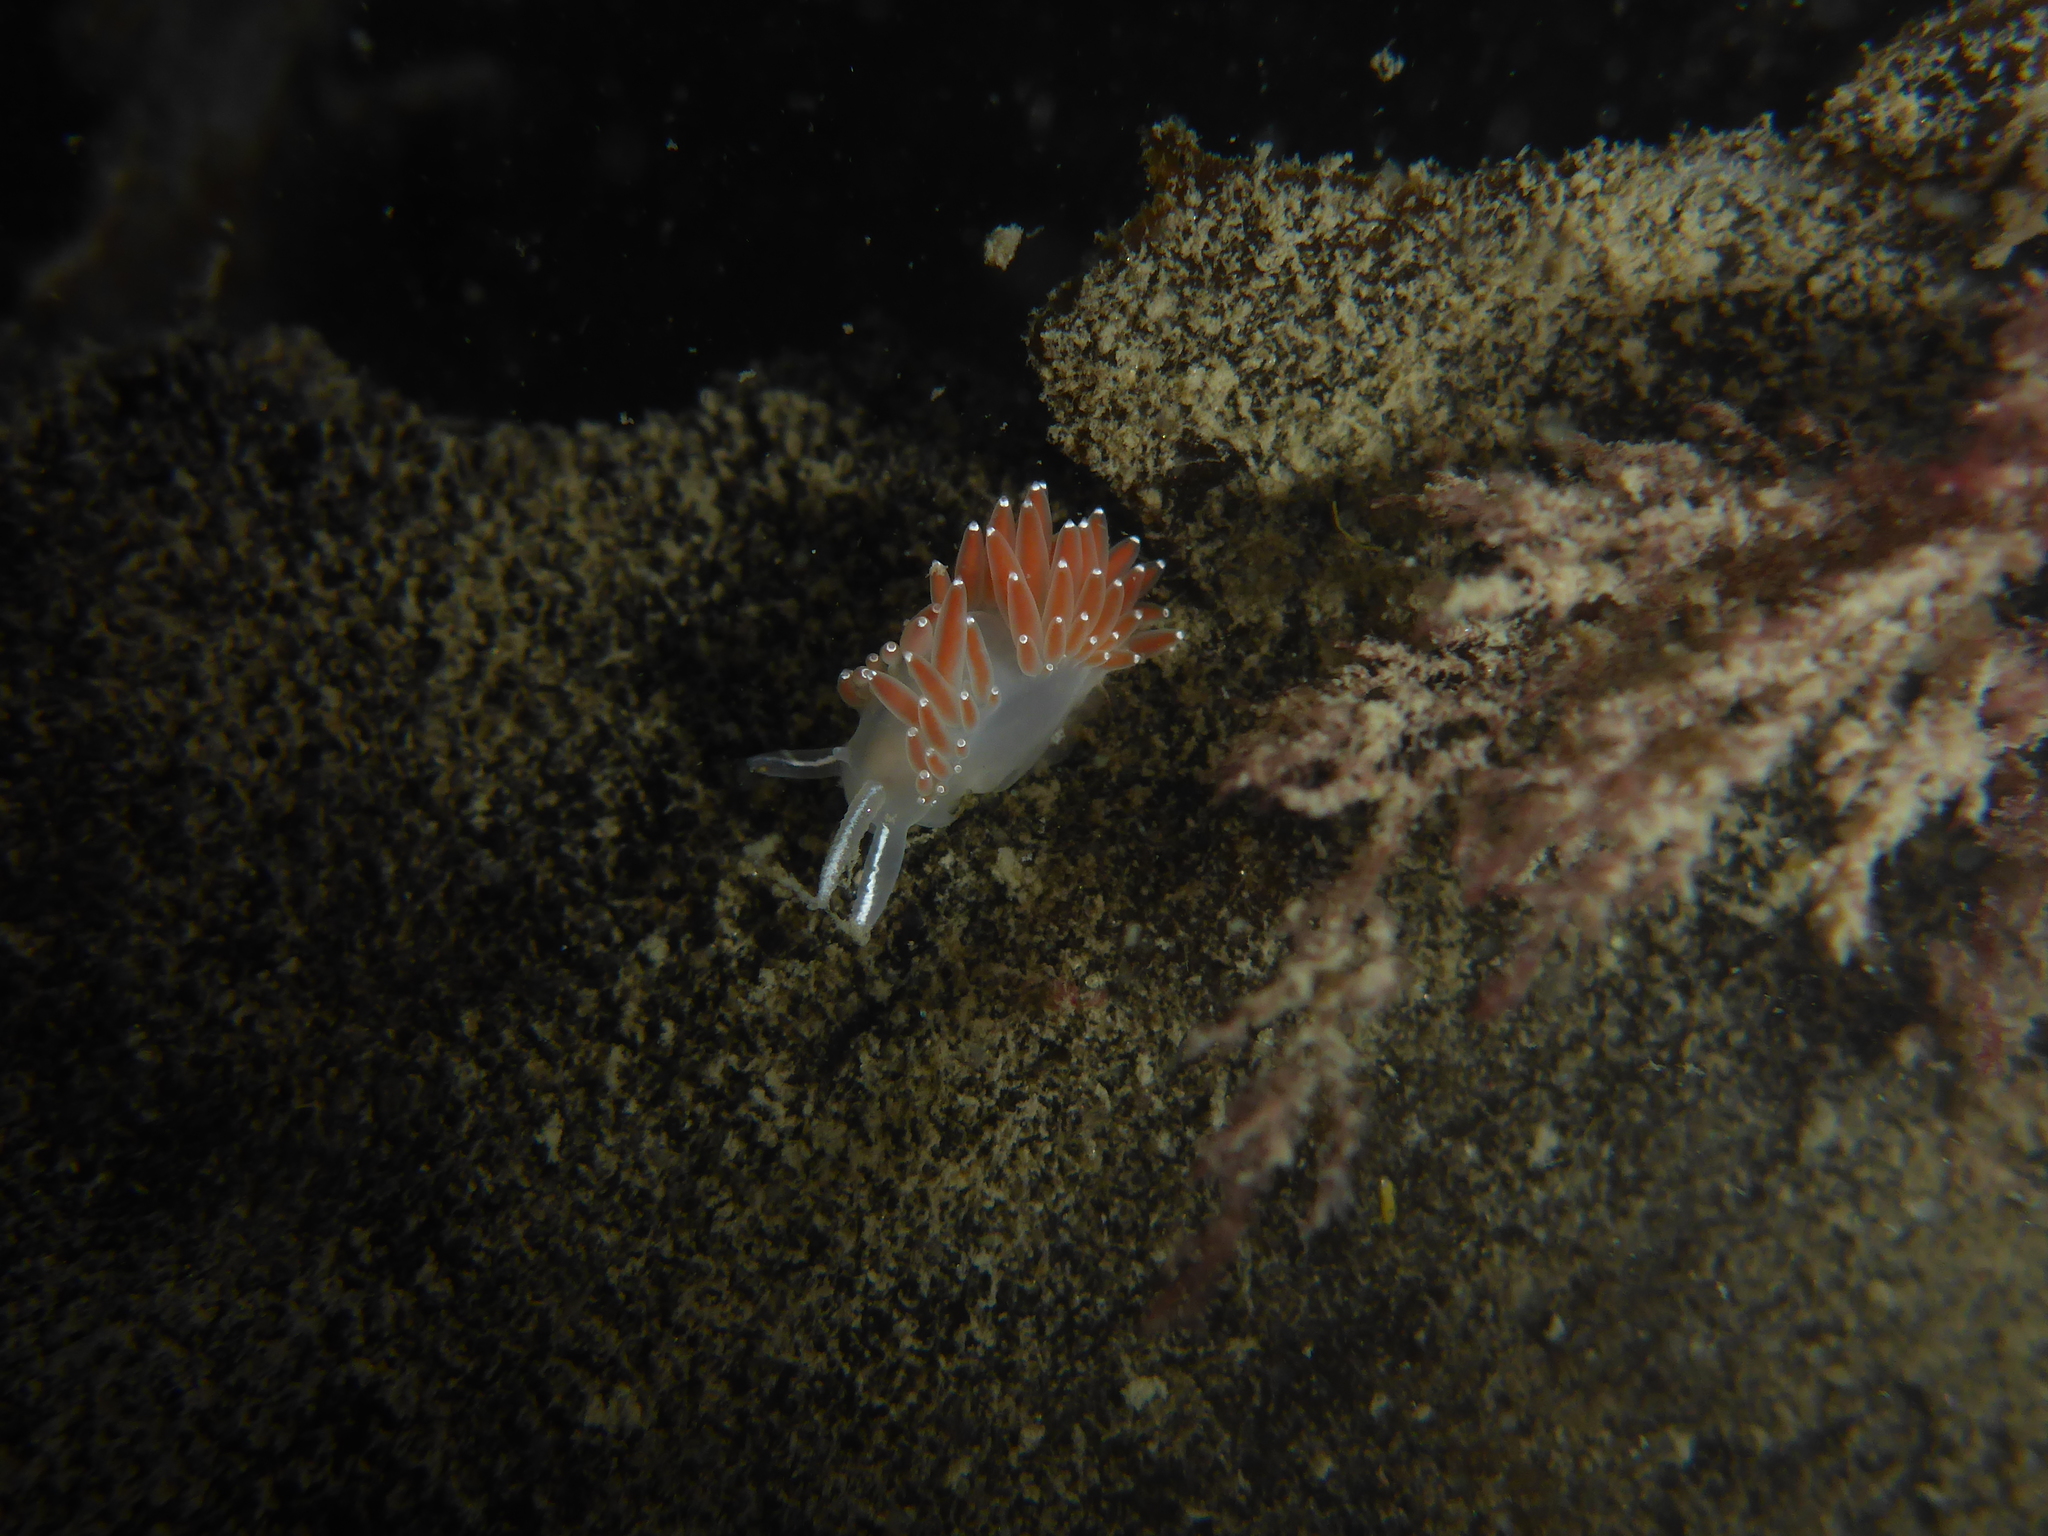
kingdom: Animalia
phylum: Mollusca
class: Gastropoda
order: Nudibranchia
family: Coryphellidae
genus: Coryphella
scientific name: Coryphella verrucosa
